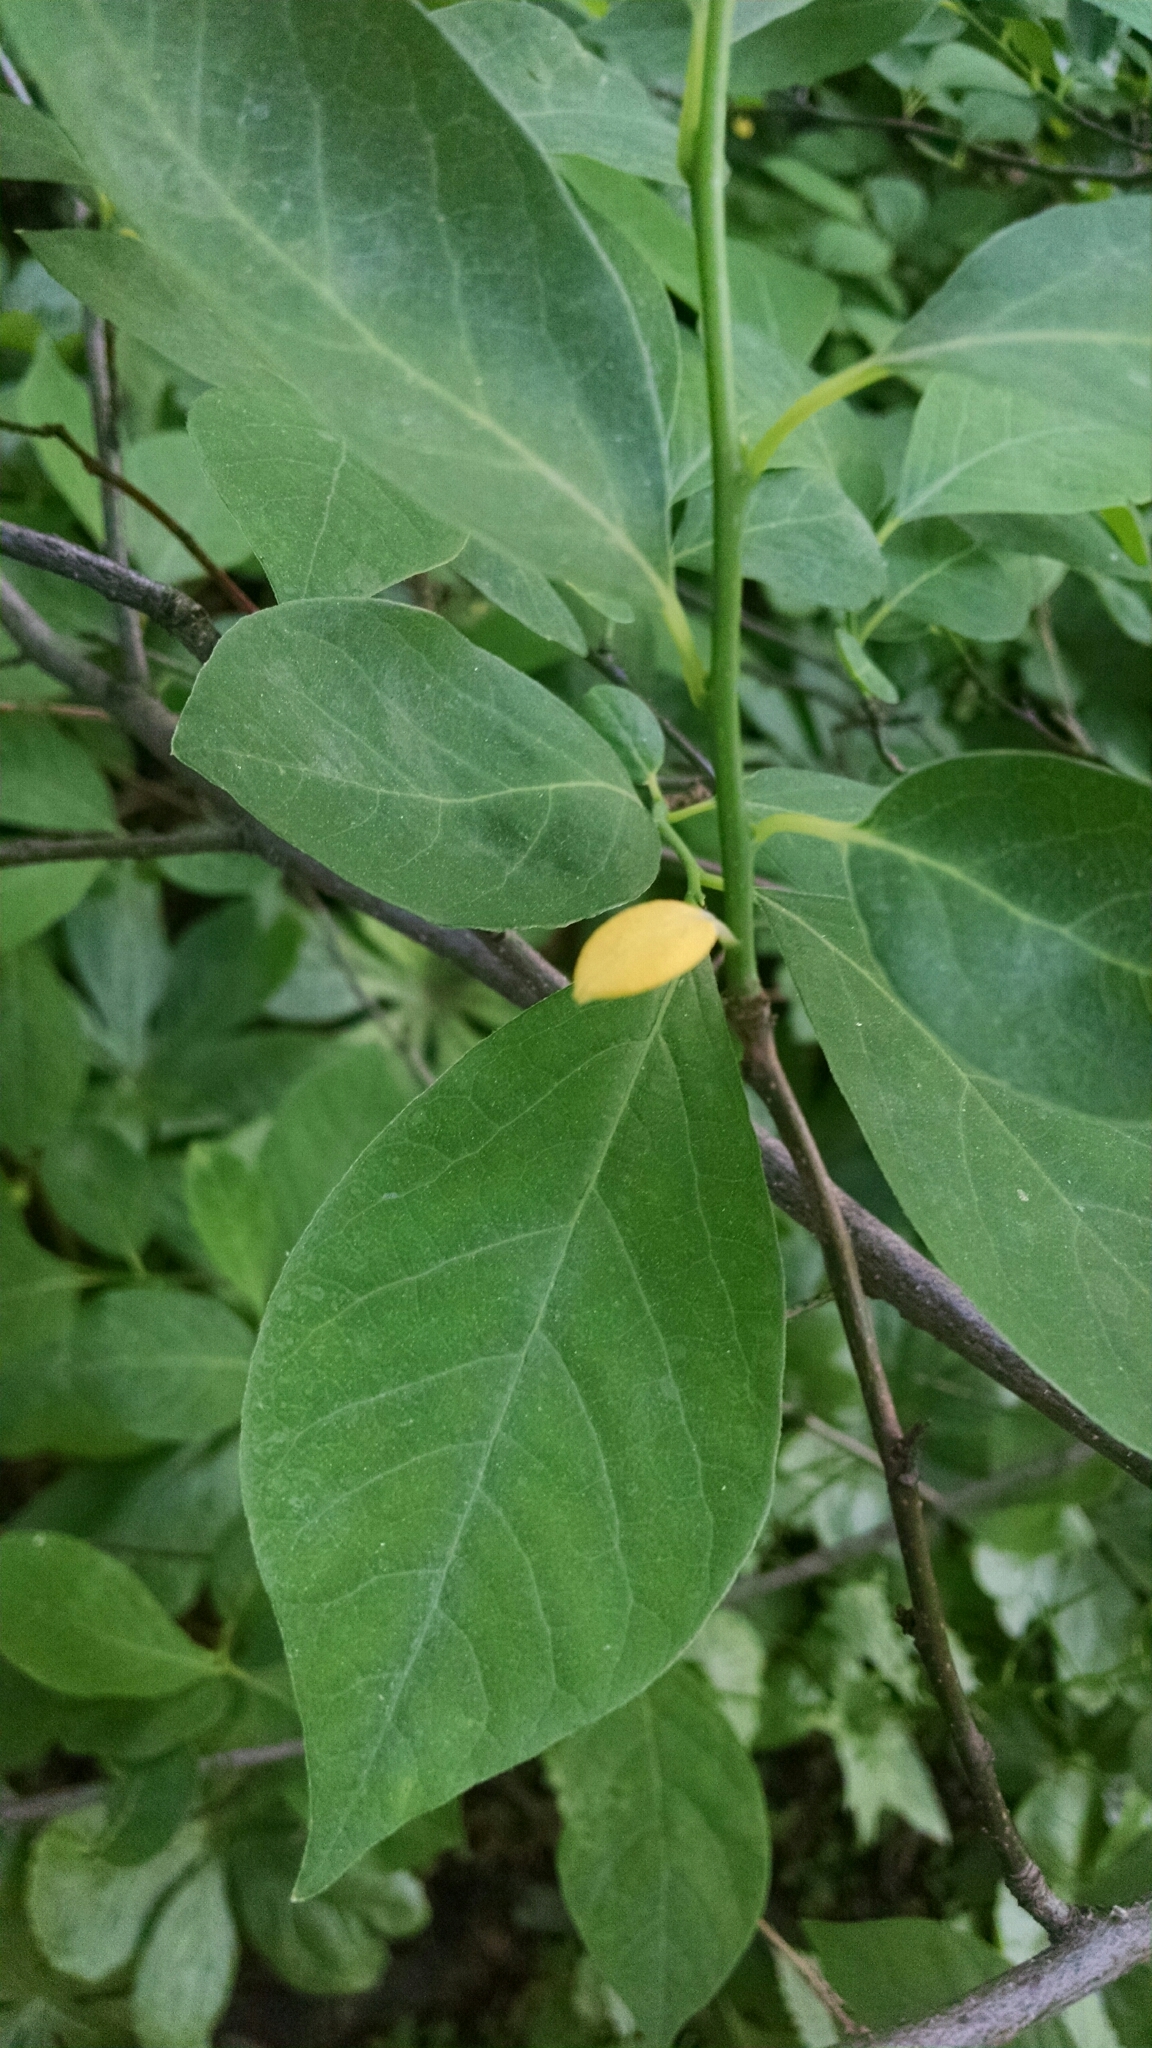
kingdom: Plantae
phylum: Tracheophyta
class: Magnoliopsida
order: Laurales
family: Lauraceae
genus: Lindera
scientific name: Lindera benzoin
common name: Spicebush
